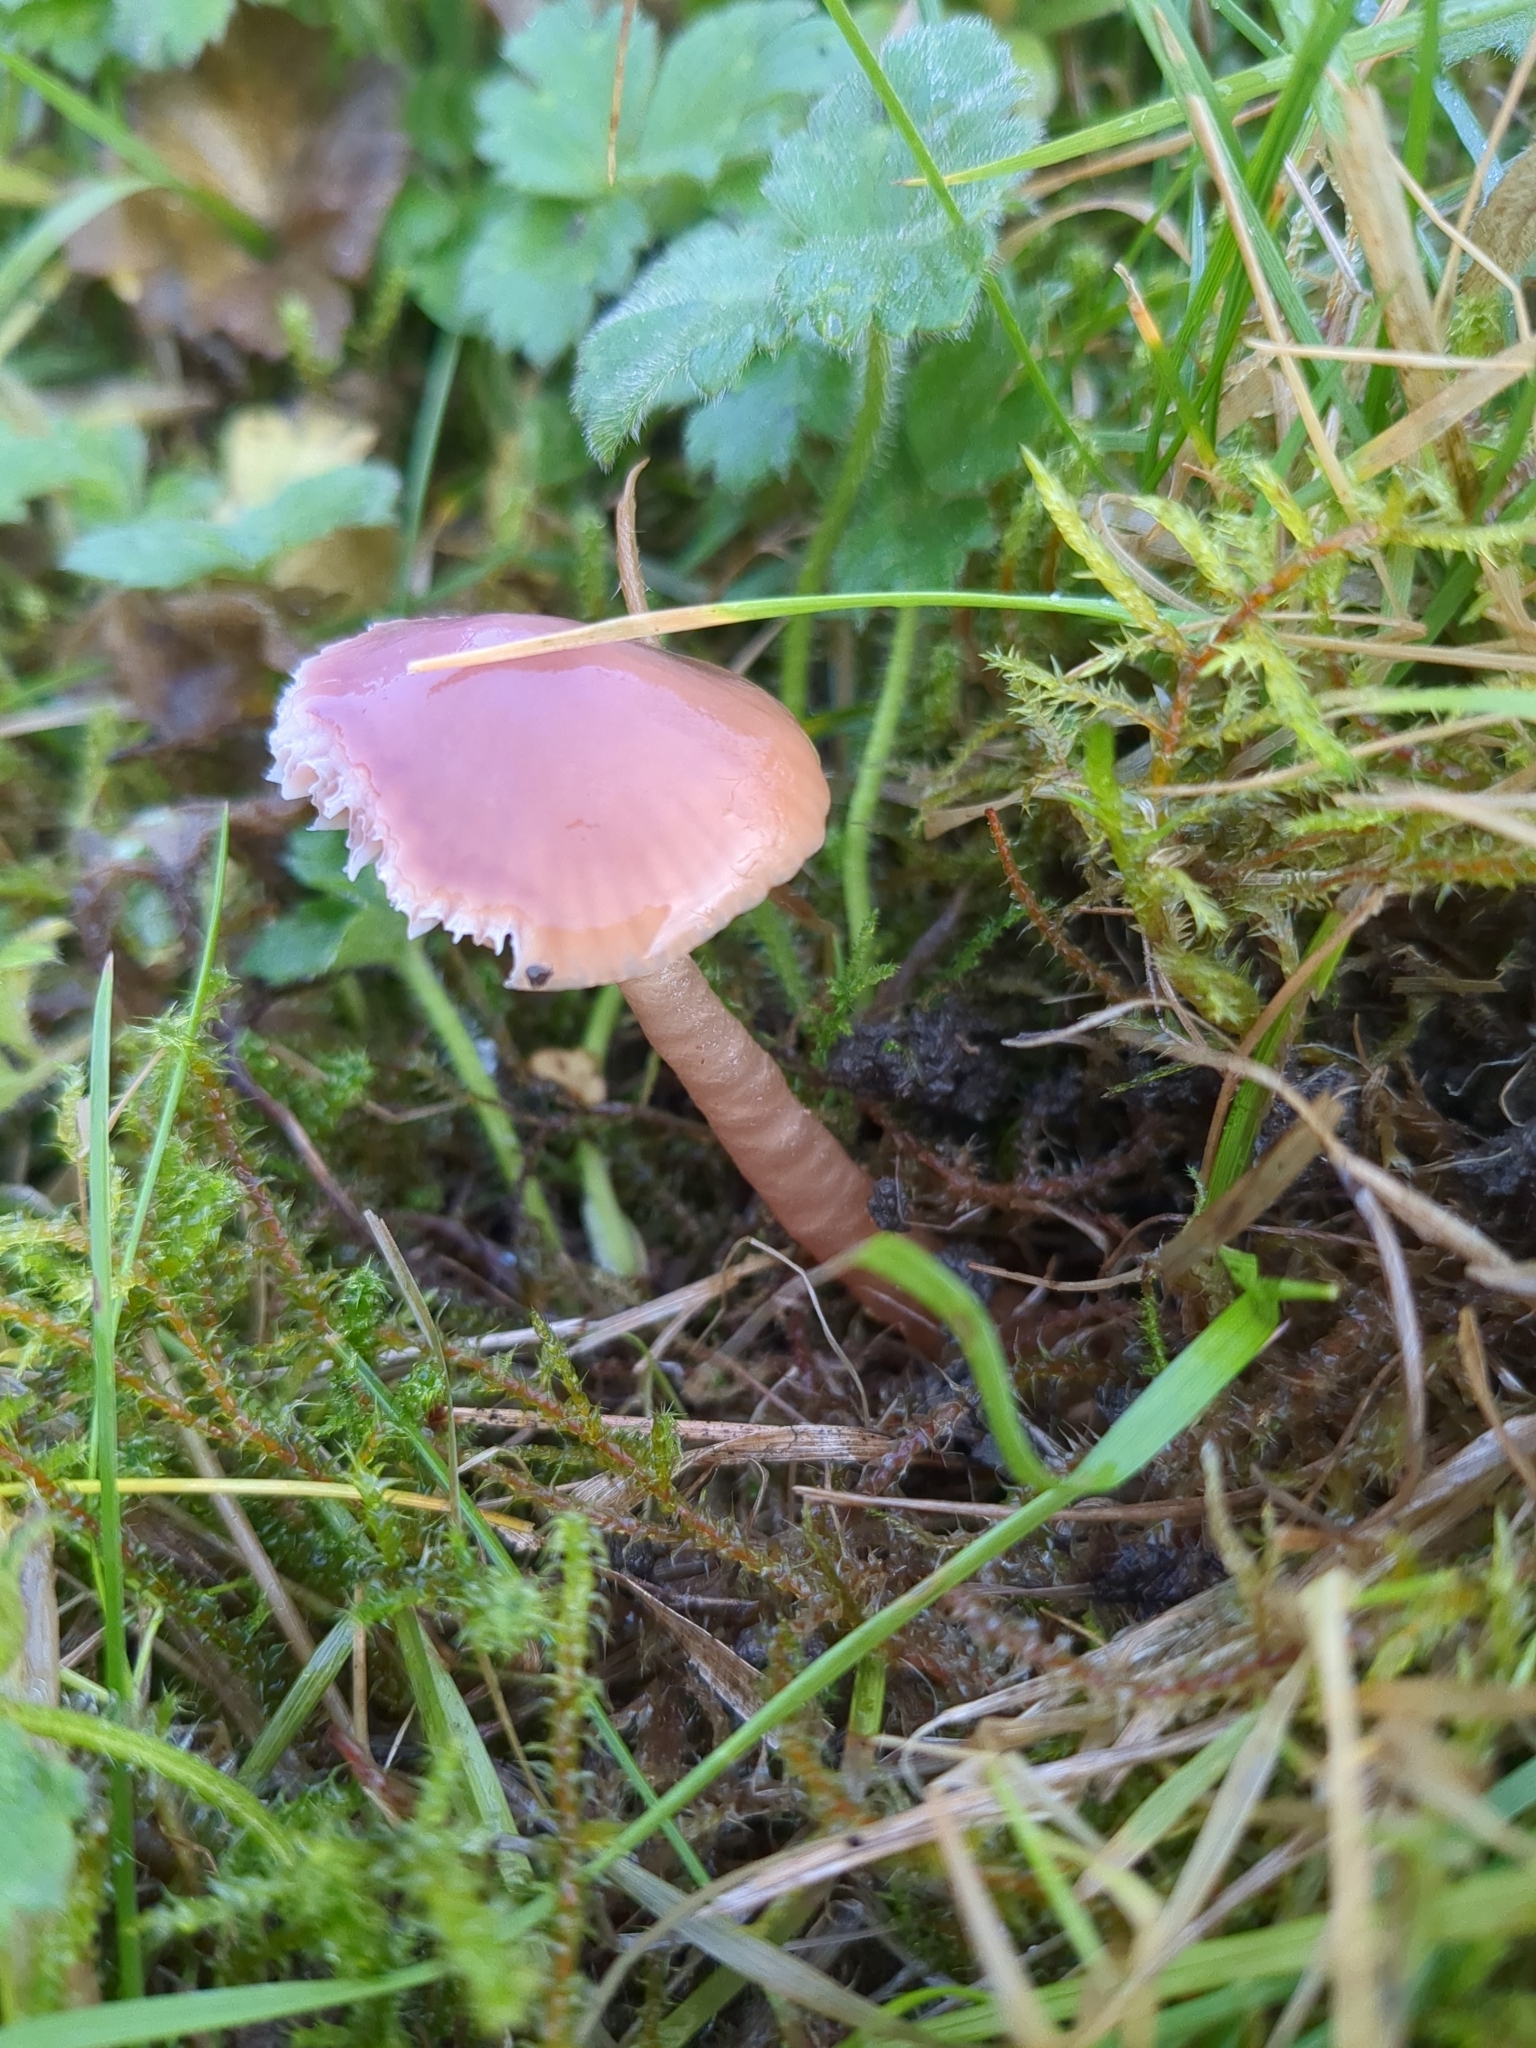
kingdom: Fungi
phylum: Basidiomycota
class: Agaricomycetes
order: Agaricales
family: Hygrophoraceae
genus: Gliophorus
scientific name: Gliophorus reginae
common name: Jubilee waxcap
